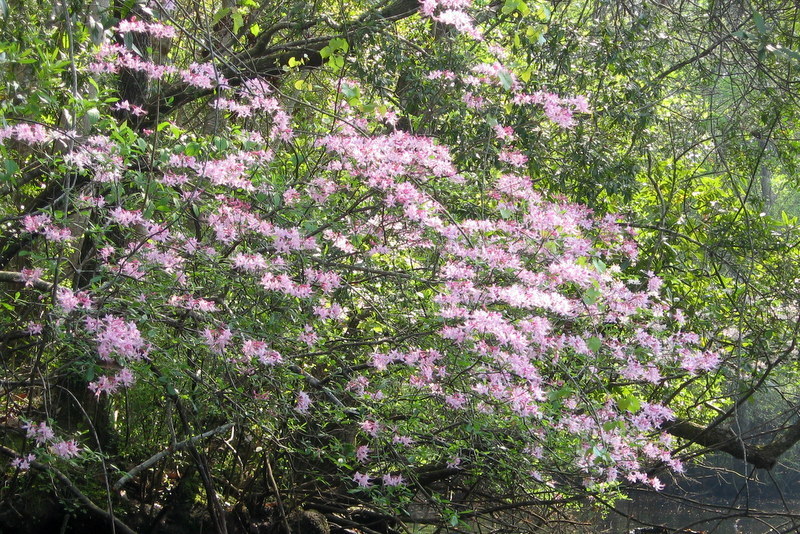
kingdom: Plantae
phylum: Tracheophyta
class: Magnoliopsida
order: Ericales
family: Ericaceae
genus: Rhododendron
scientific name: Rhododendron canescens
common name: Mountain azalea
